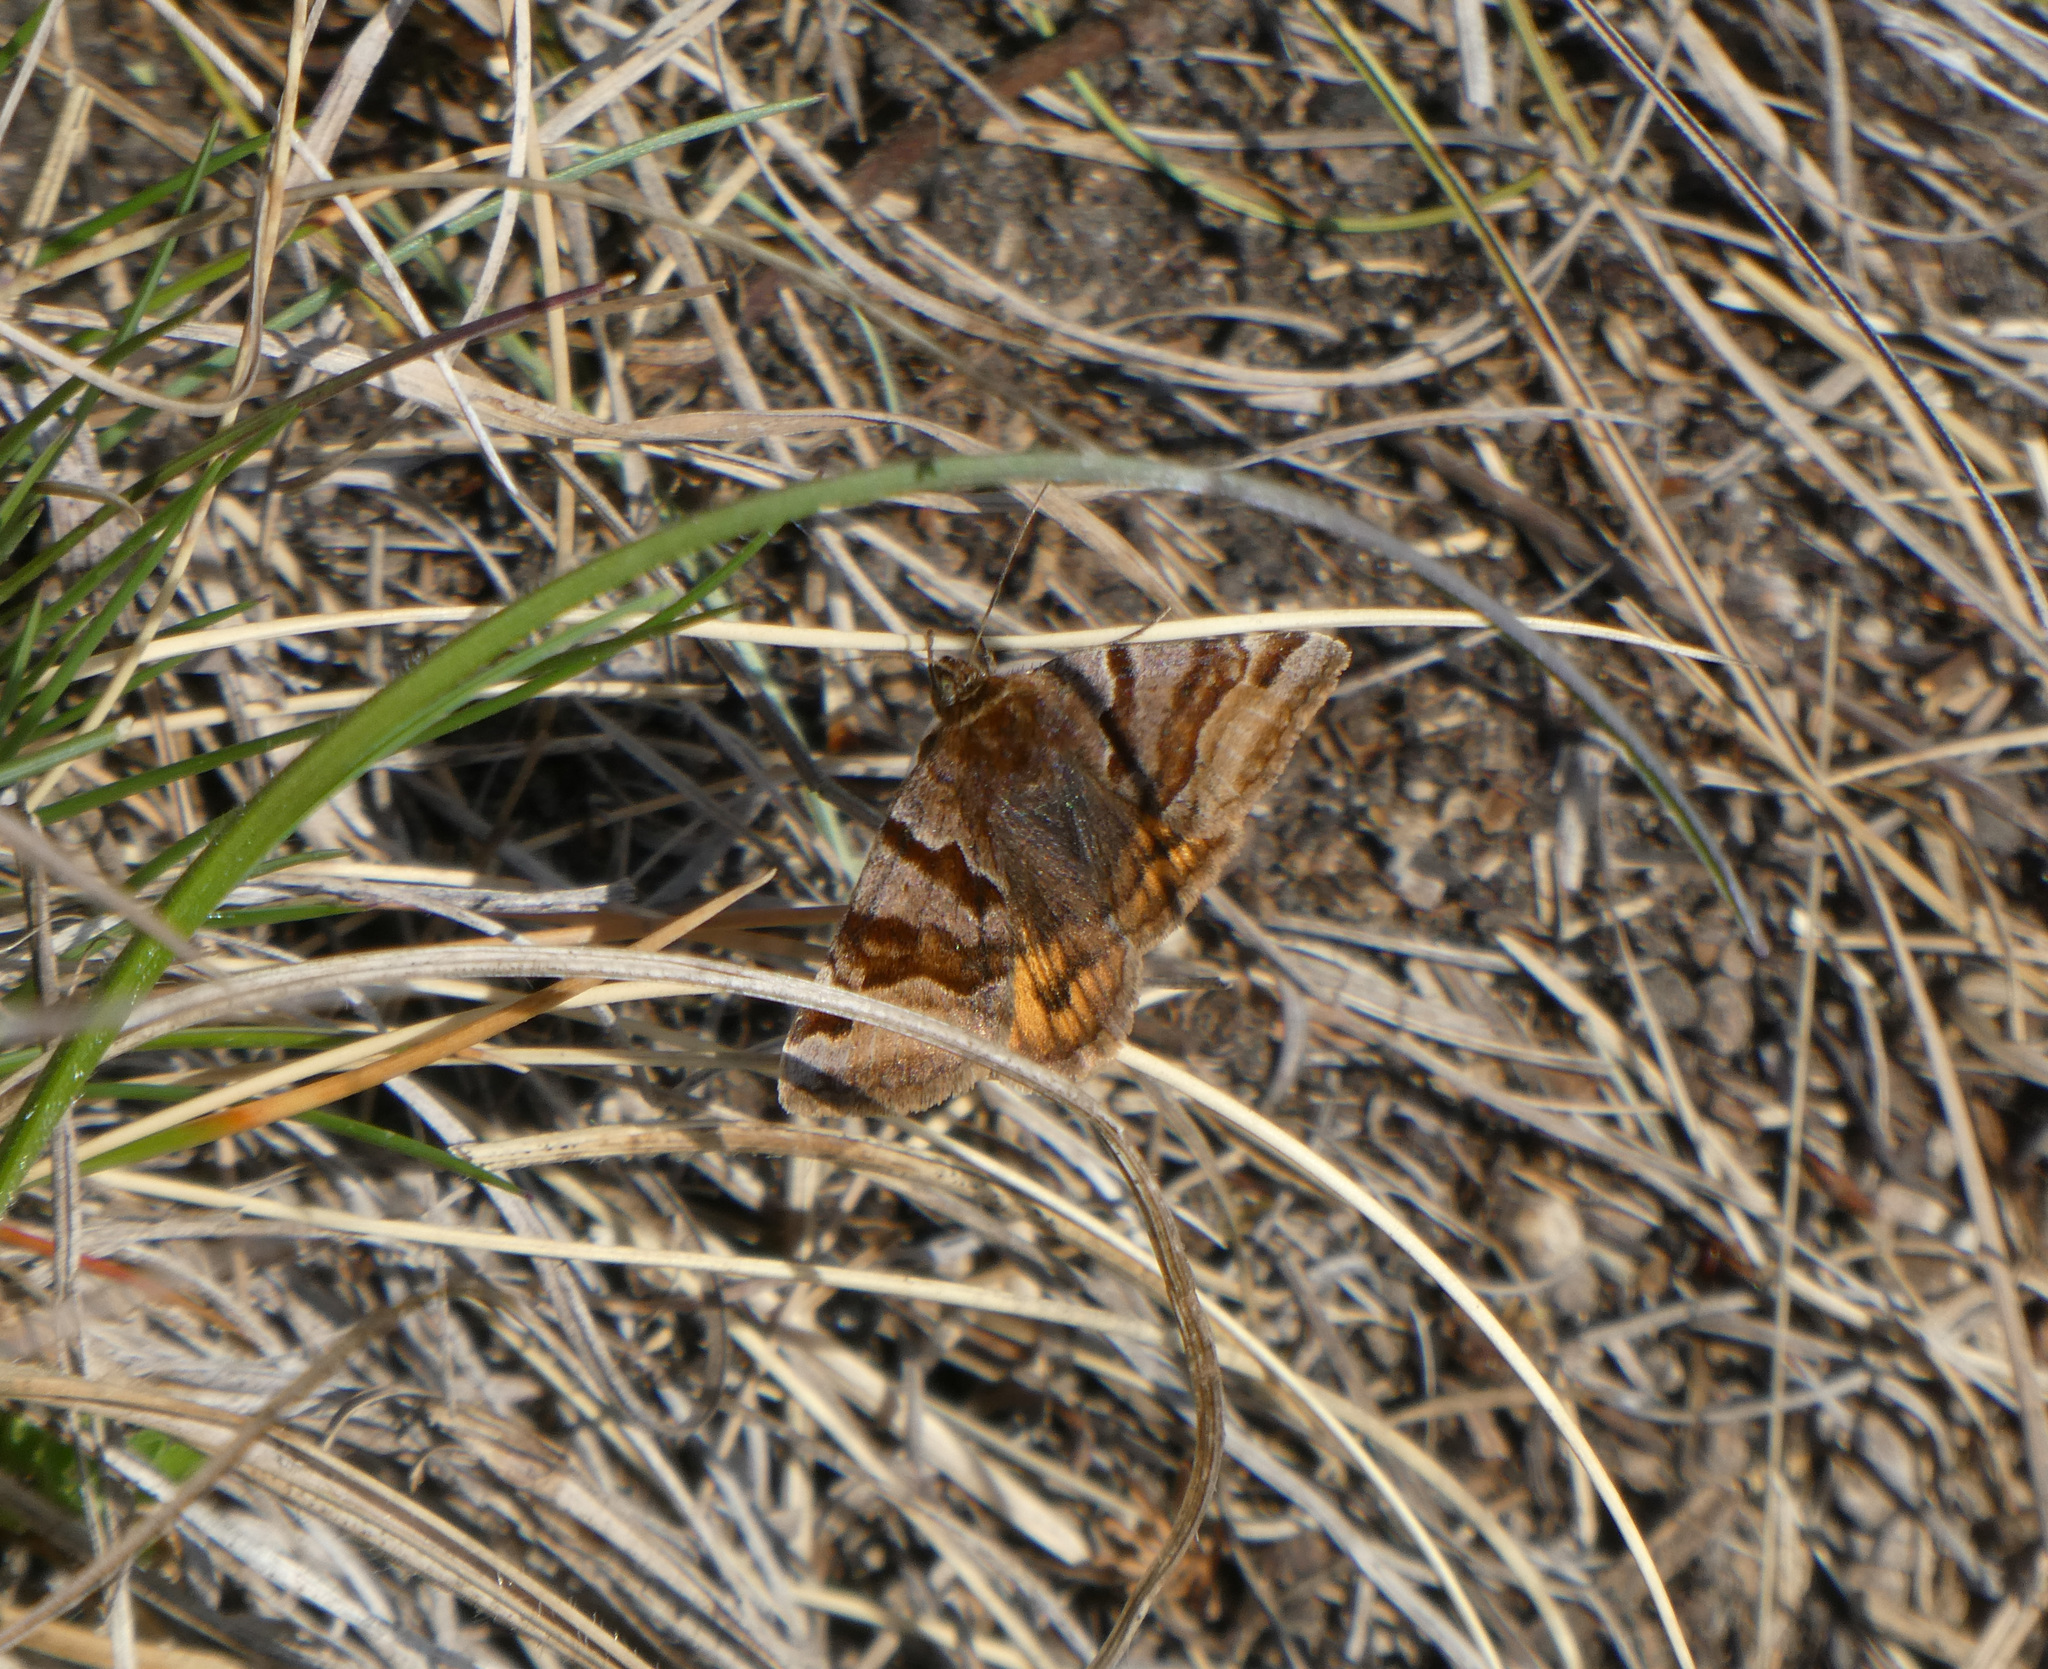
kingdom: Animalia
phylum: Arthropoda
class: Insecta
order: Lepidoptera
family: Erebidae
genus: Euclidia
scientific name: Euclidia glyphica
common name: Burnet companion
